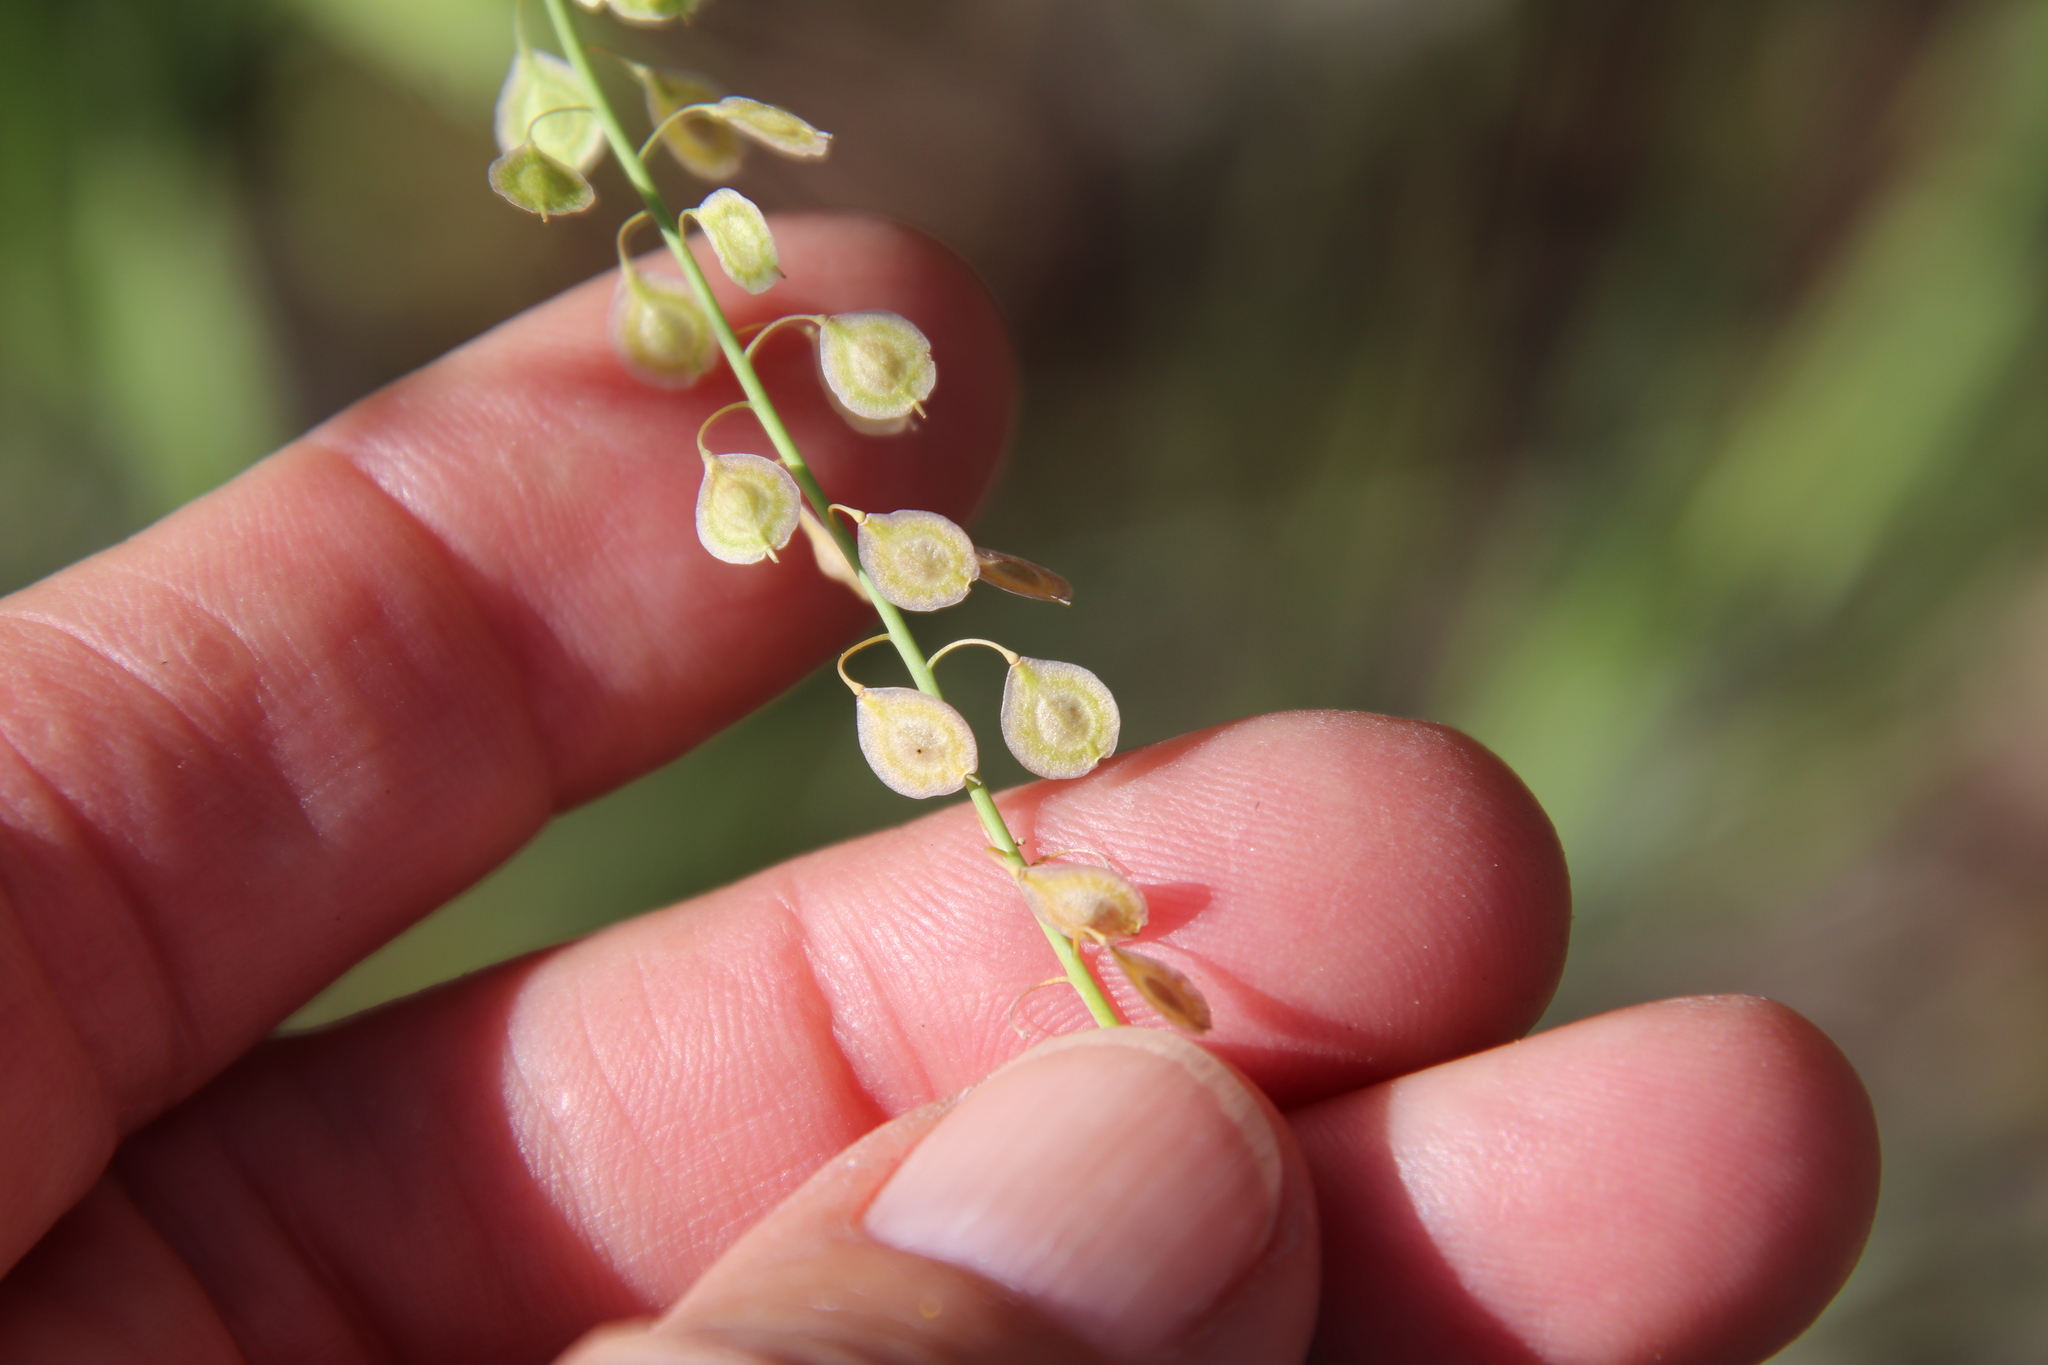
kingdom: Plantae
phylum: Tracheophyta
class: Magnoliopsida
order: Brassicales
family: Brassicaceae
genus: Thysanocarpus
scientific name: Thysanocarpus laciniatus
